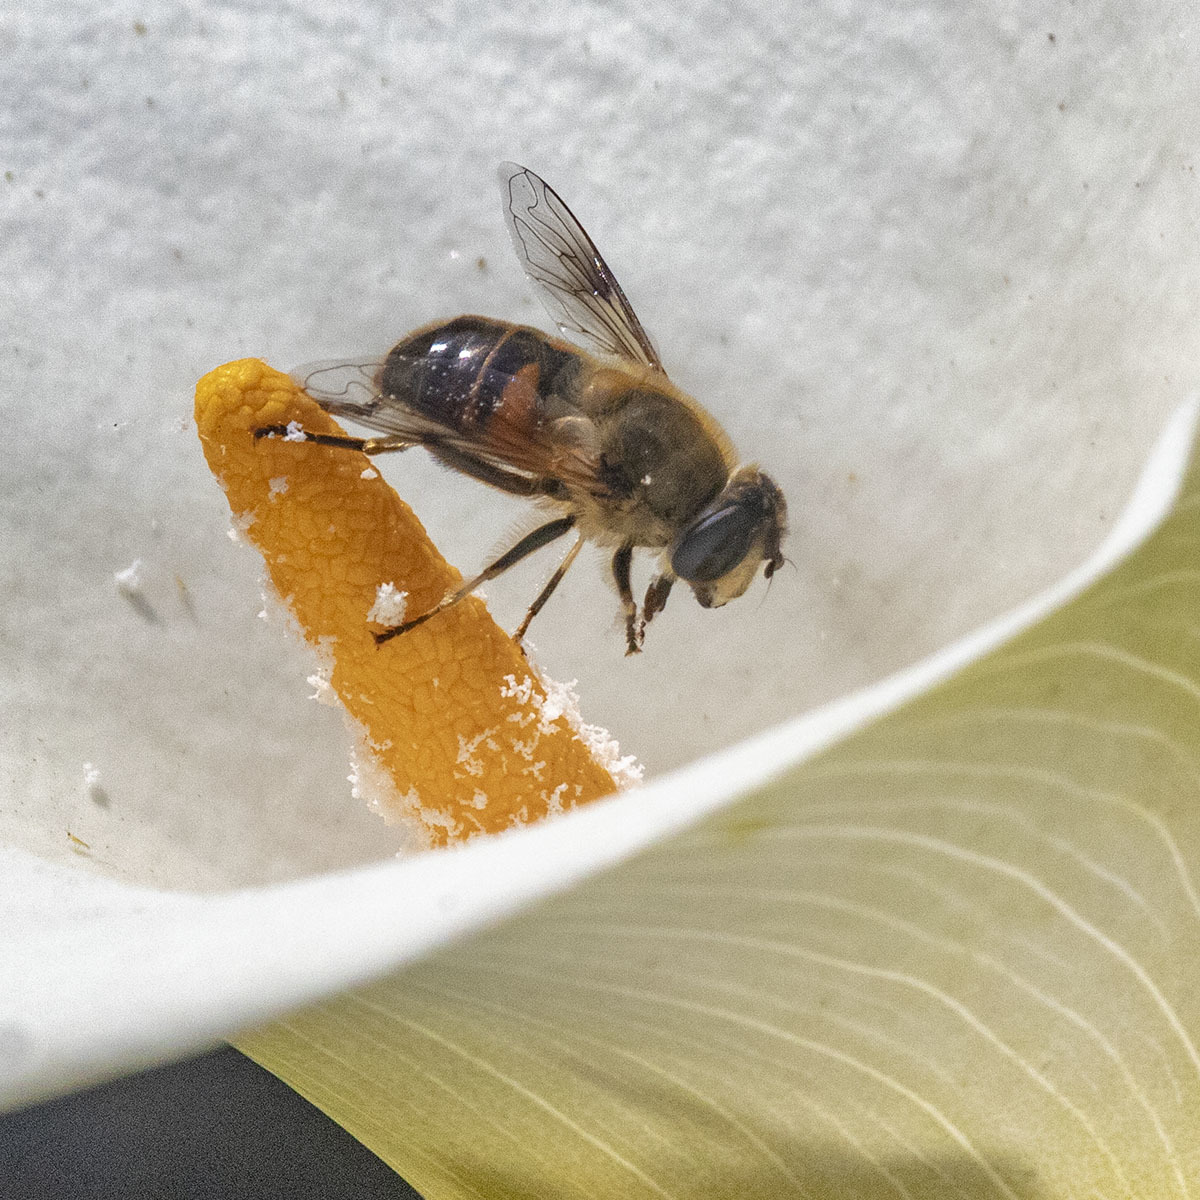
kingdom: Animalia
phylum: Arthropoda
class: Insecta
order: Diptera
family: Syrphidae
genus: Eristalis
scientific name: Eristalis tenax
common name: Drone fly
